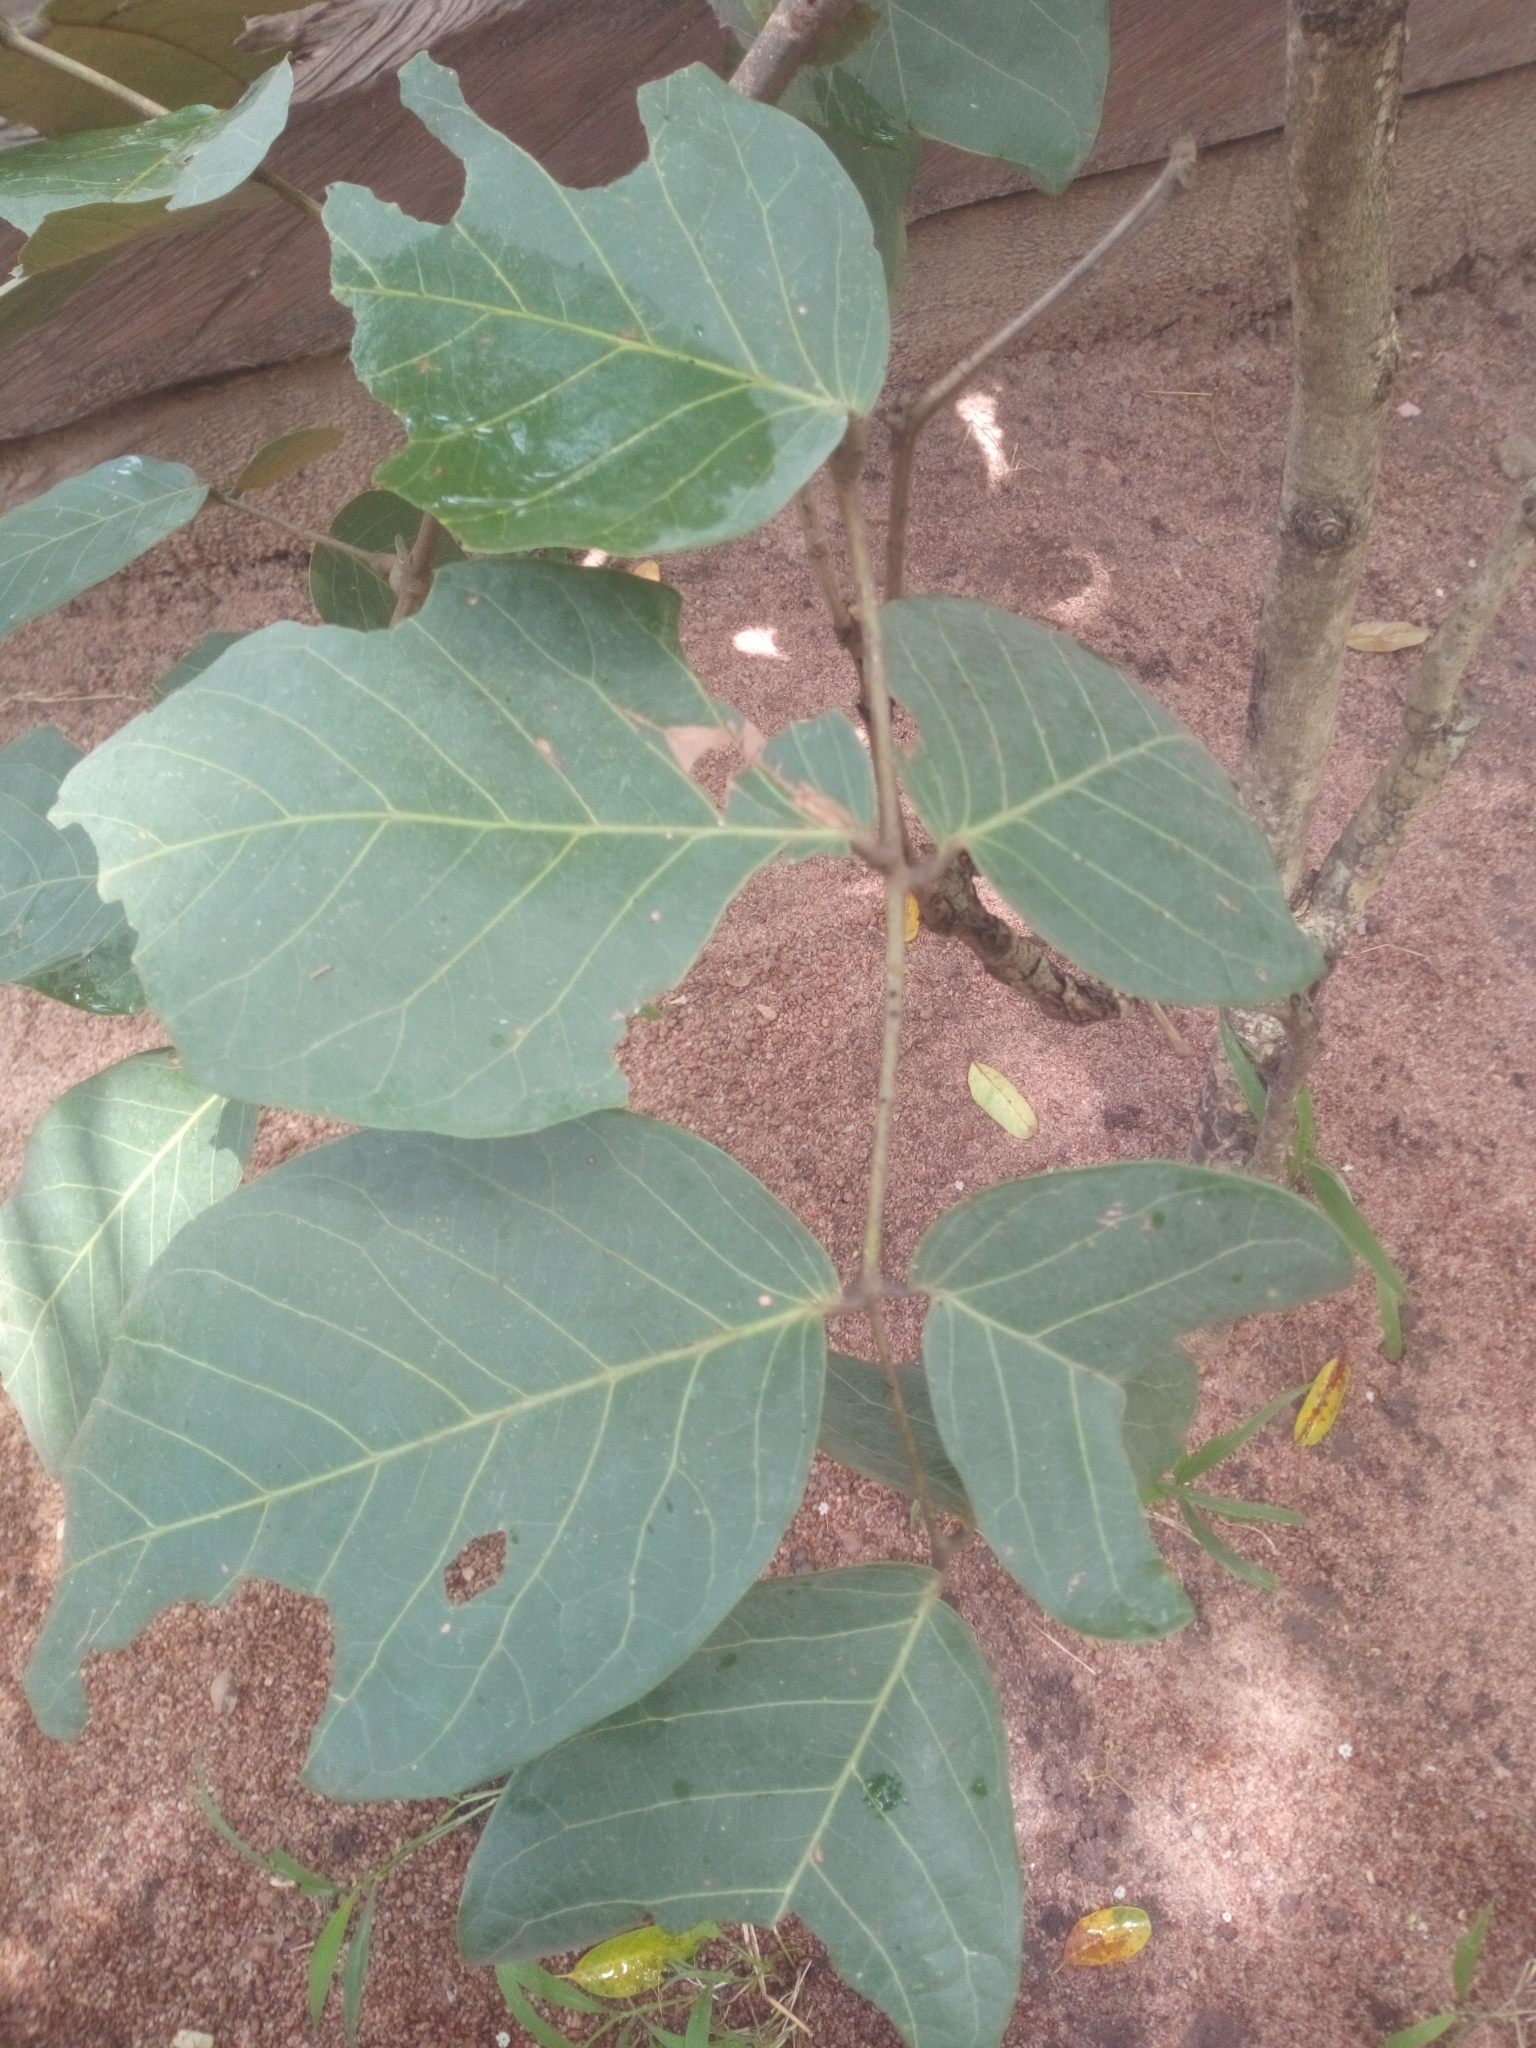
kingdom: Plantae
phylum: Tracheophyta
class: Magnoliopsida
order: Fabales
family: Fabaceae
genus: Isoberlinia
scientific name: Isoberlinia tomentosa
